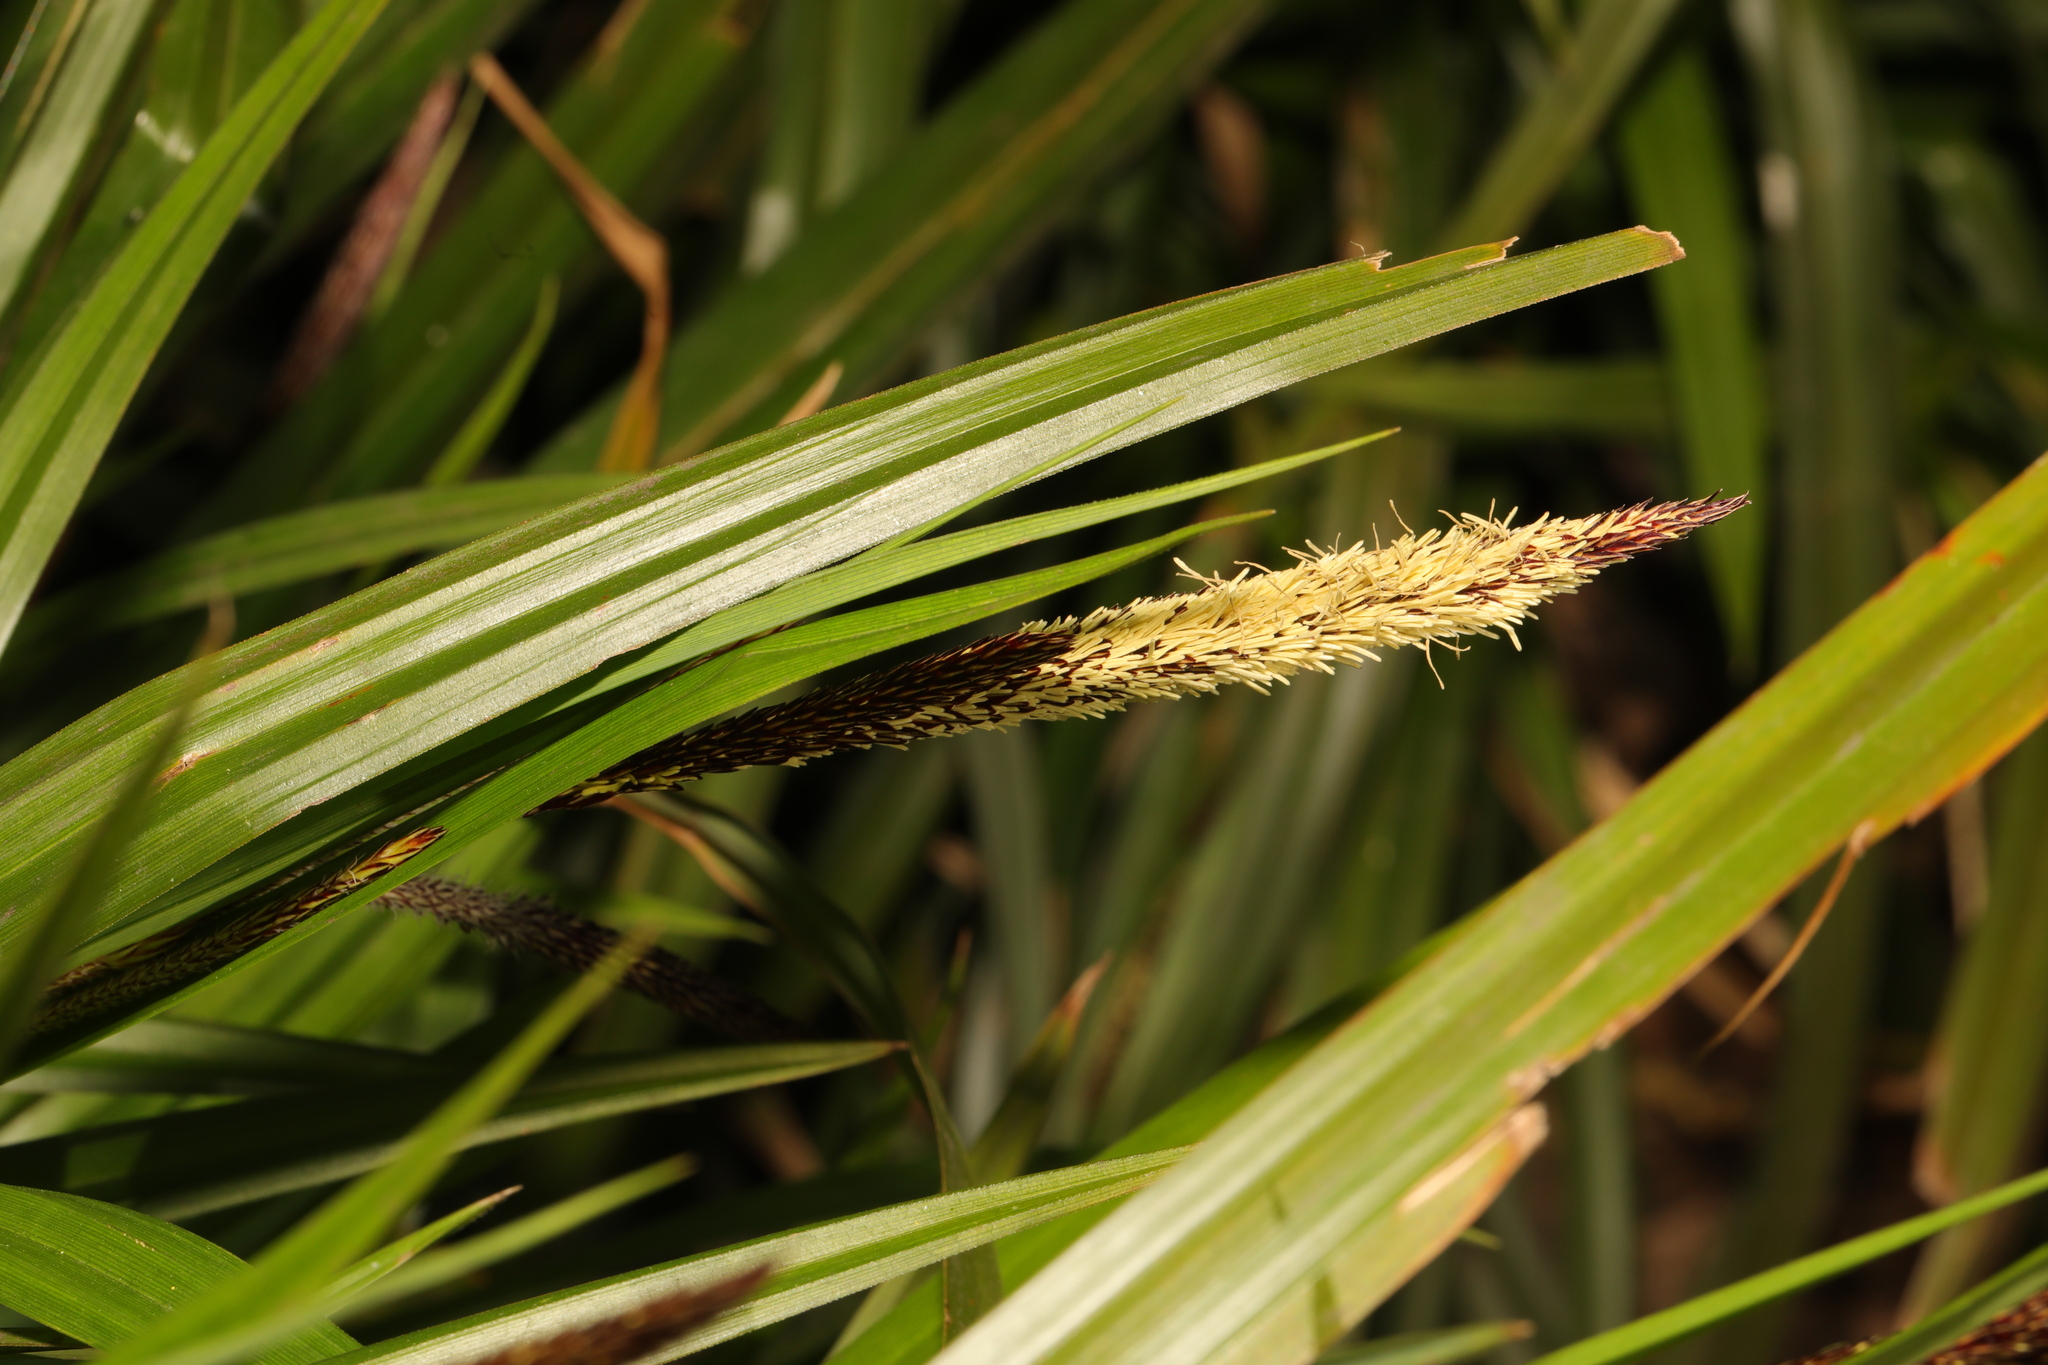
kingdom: Plantae
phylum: Tracheophyta
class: Liliopsida
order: Poales
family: Cyperaceae
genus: Carex
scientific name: Carex pendula
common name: Pendulous sedge
